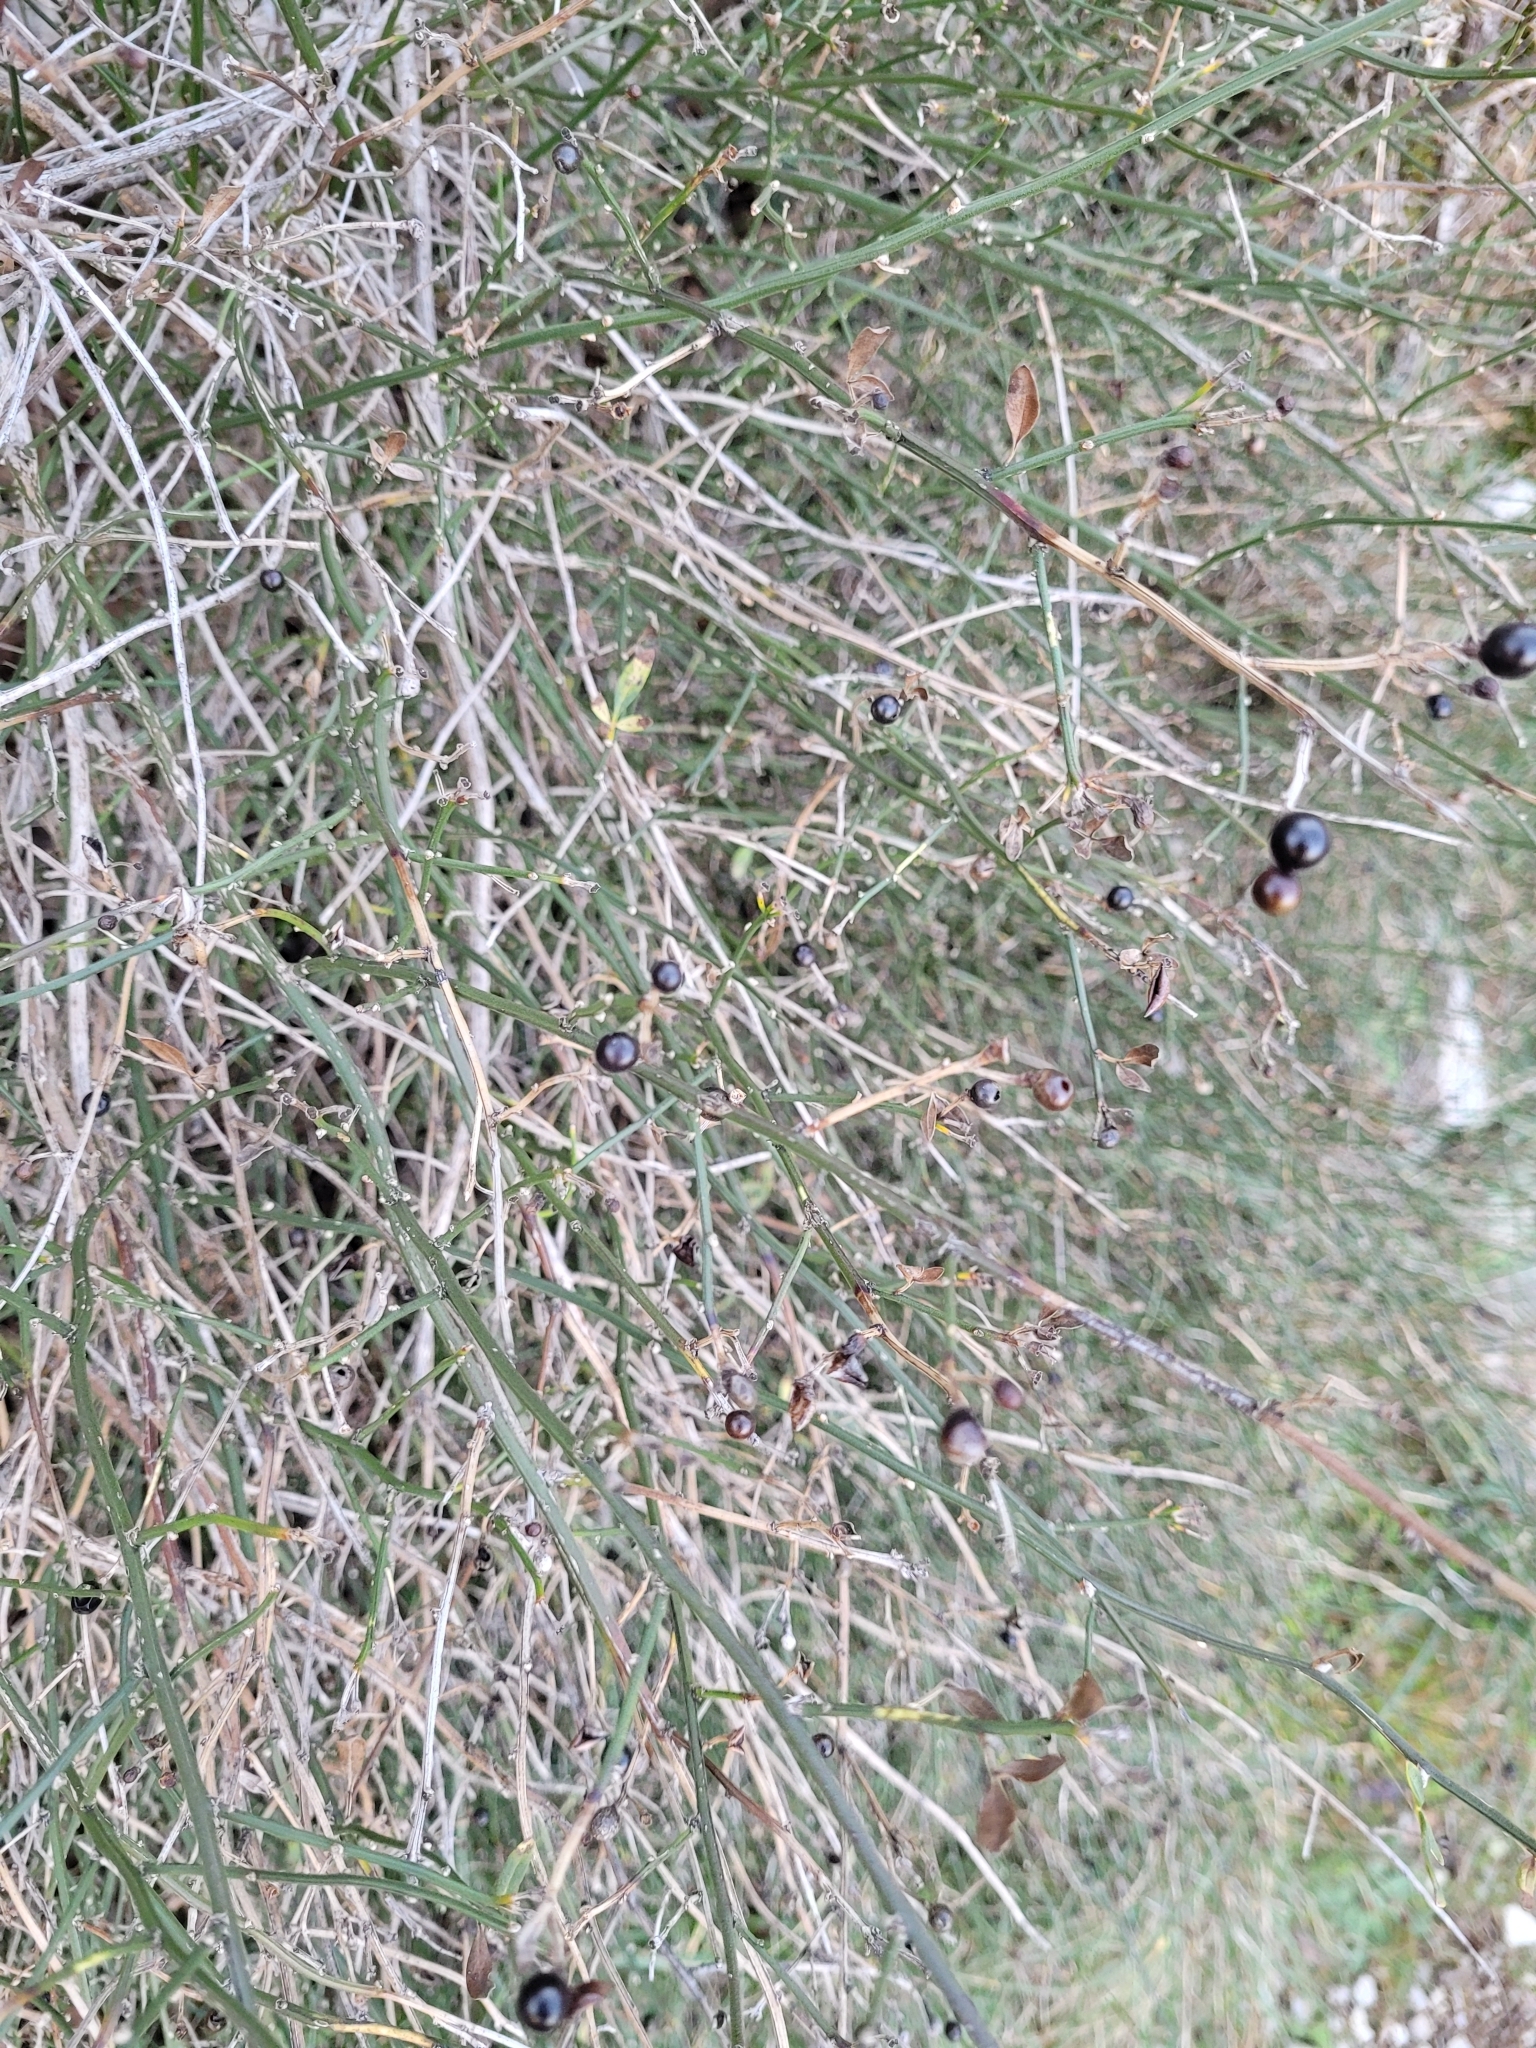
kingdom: Plantae
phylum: Tracheophyta
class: Magnoliopsida
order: Lamiales
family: Oleaceae
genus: Chrysojasminum
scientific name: Chrysojasminum fruticans
